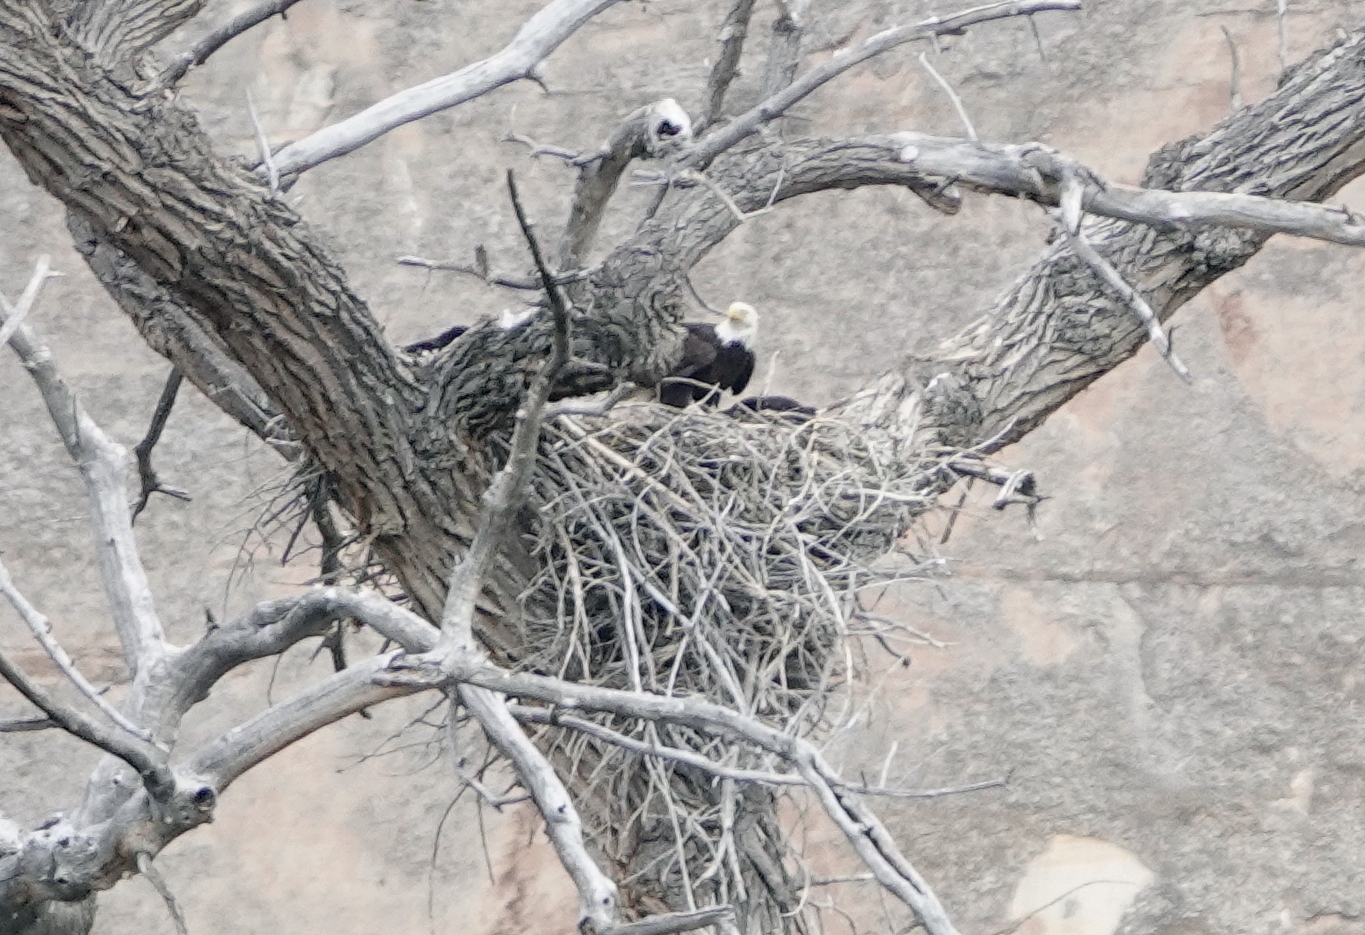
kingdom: Animalia
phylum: Chordata
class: Aves
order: Accipitriformes
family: Accipitridae
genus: Haliaeetus
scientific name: Haliaeetus leucocephalus
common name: Bald eagle
